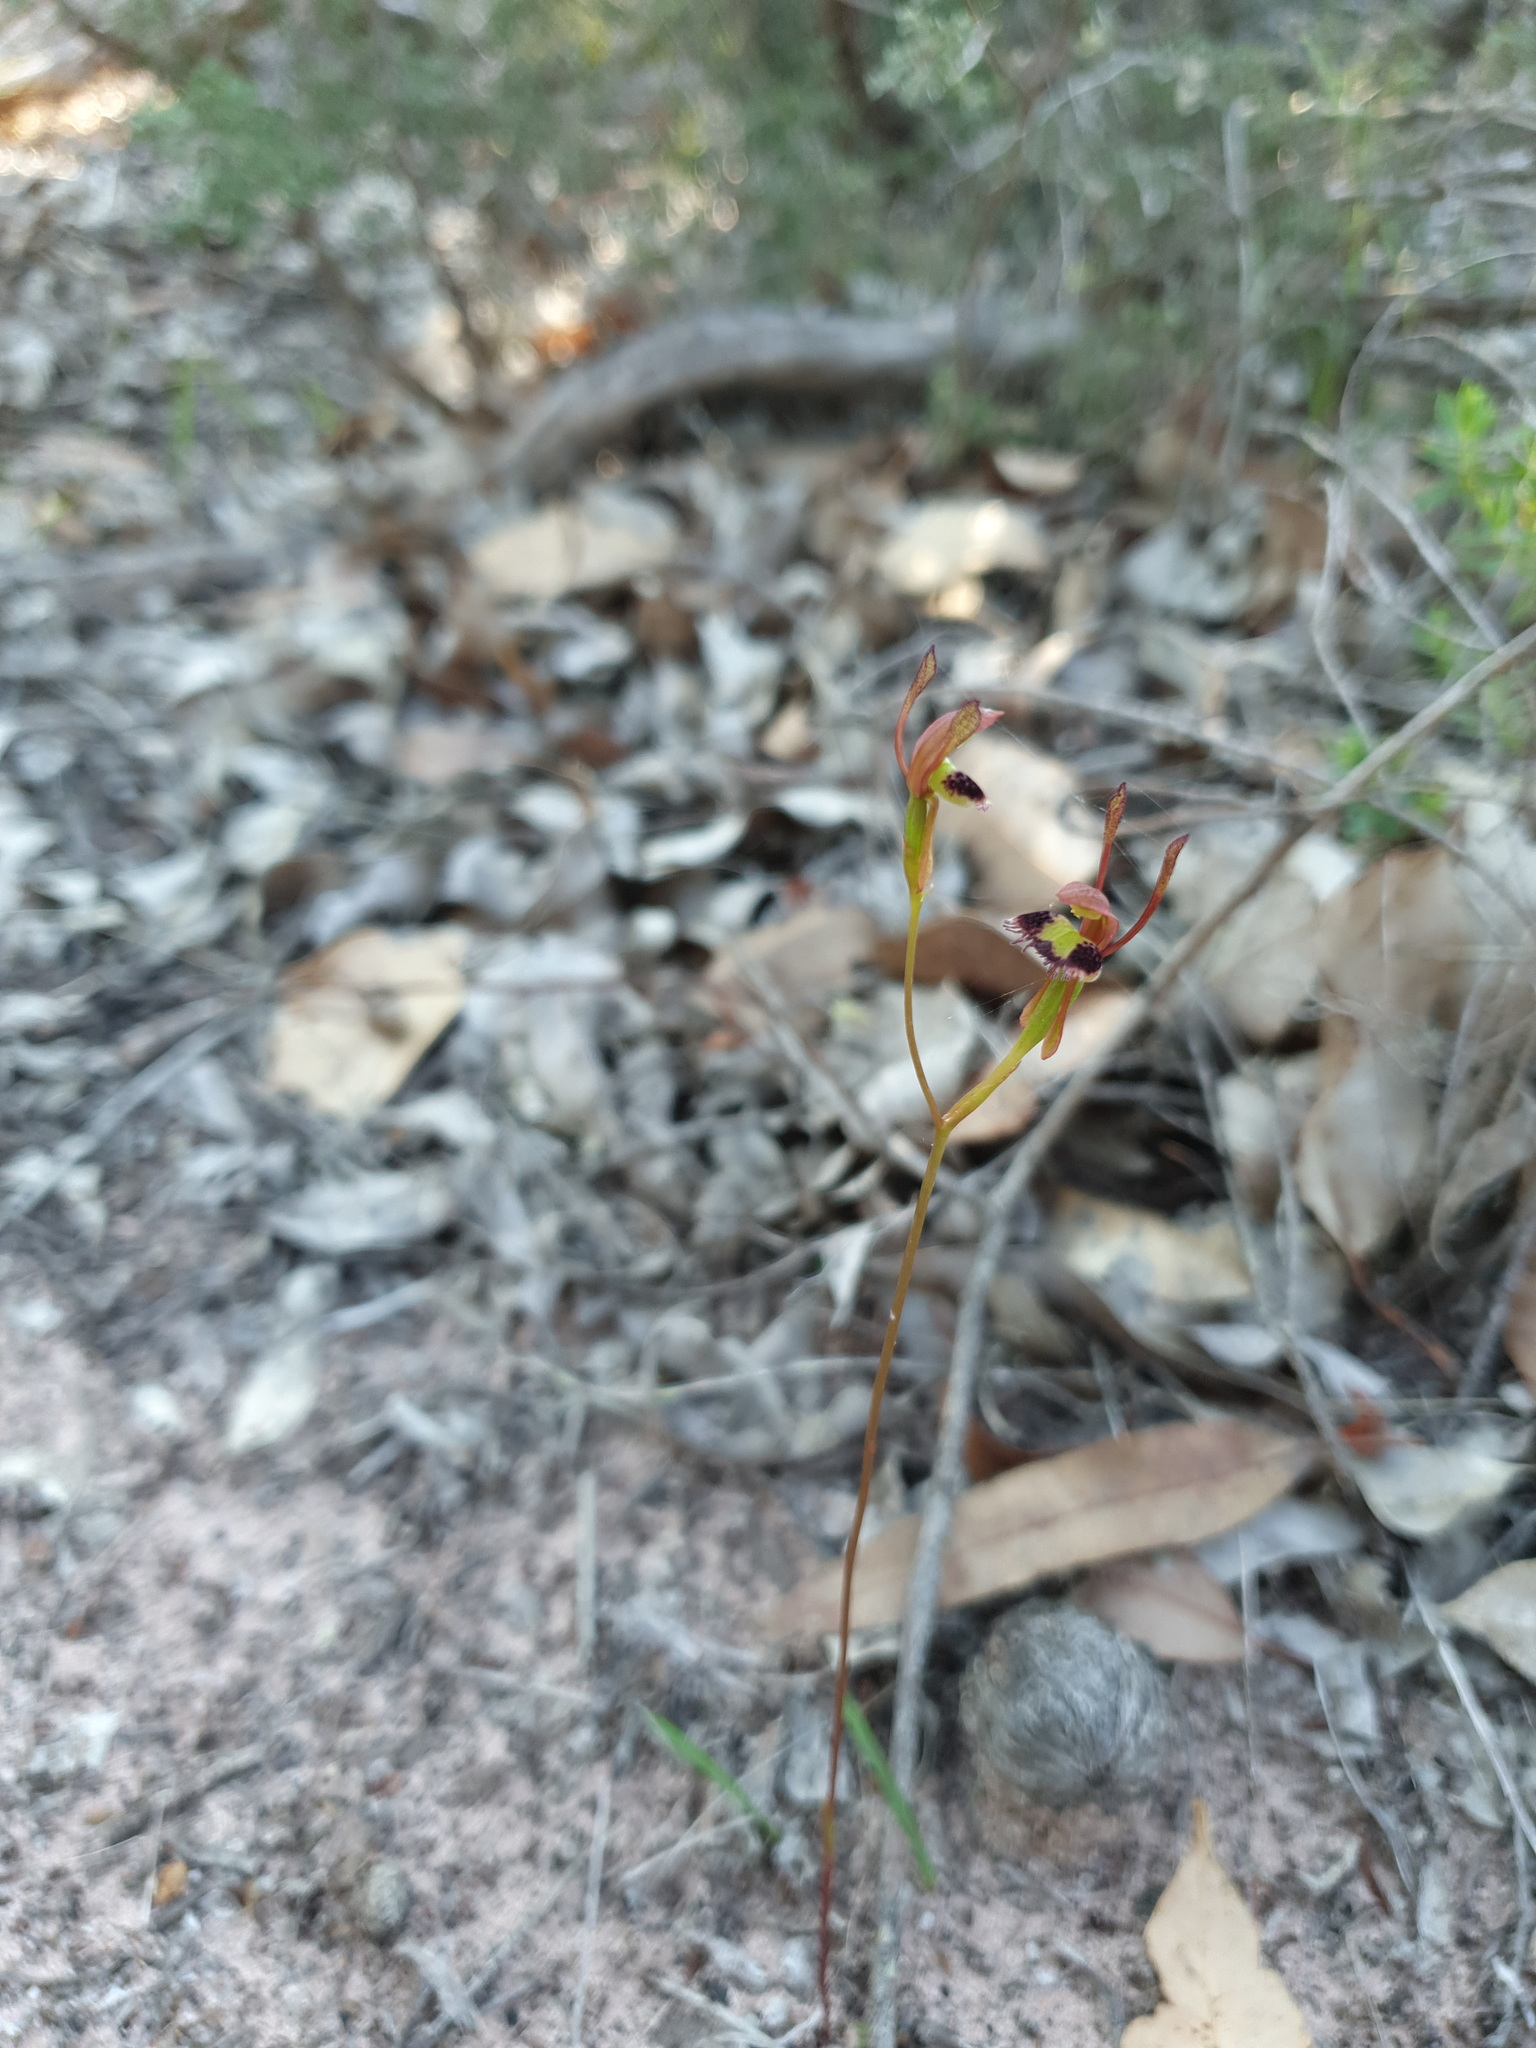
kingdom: Plantae
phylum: Tracheophyta
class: Liliopsida
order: Asparagales
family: Orchidaceae
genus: Leporella
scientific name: Leporella fimbriata
